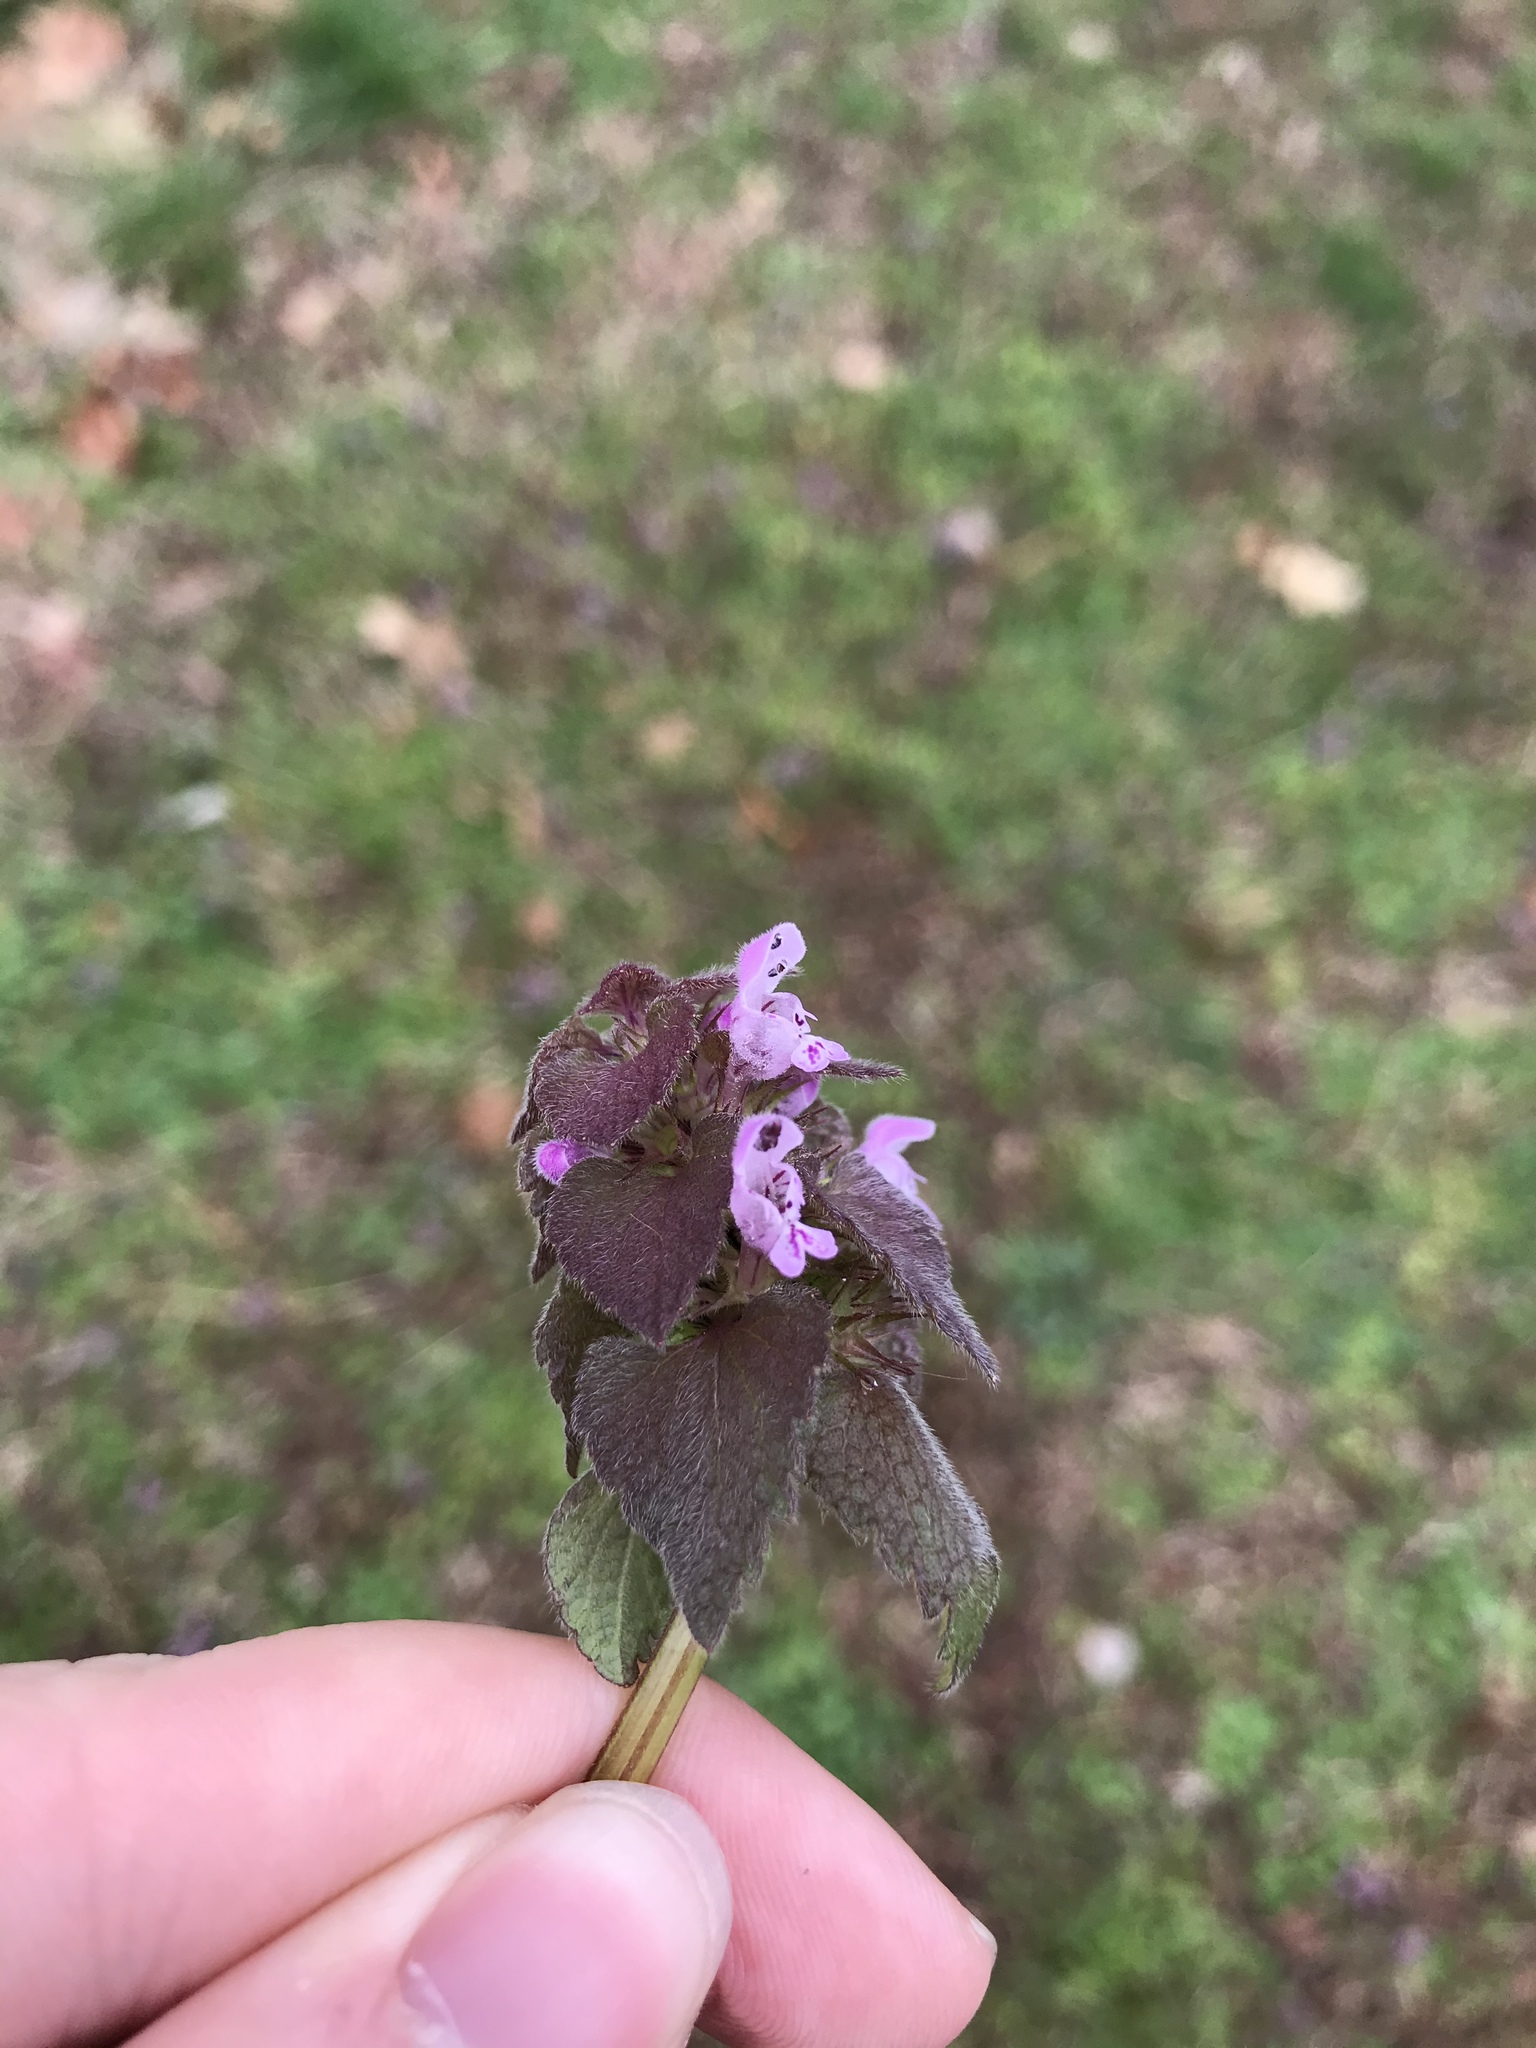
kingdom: Plantae
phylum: Tracheophyta
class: Magnoliopsida
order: Lamiales
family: Lamiaceae
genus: Lamium
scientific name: Lamium purpureum
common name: Red dead-nettle
